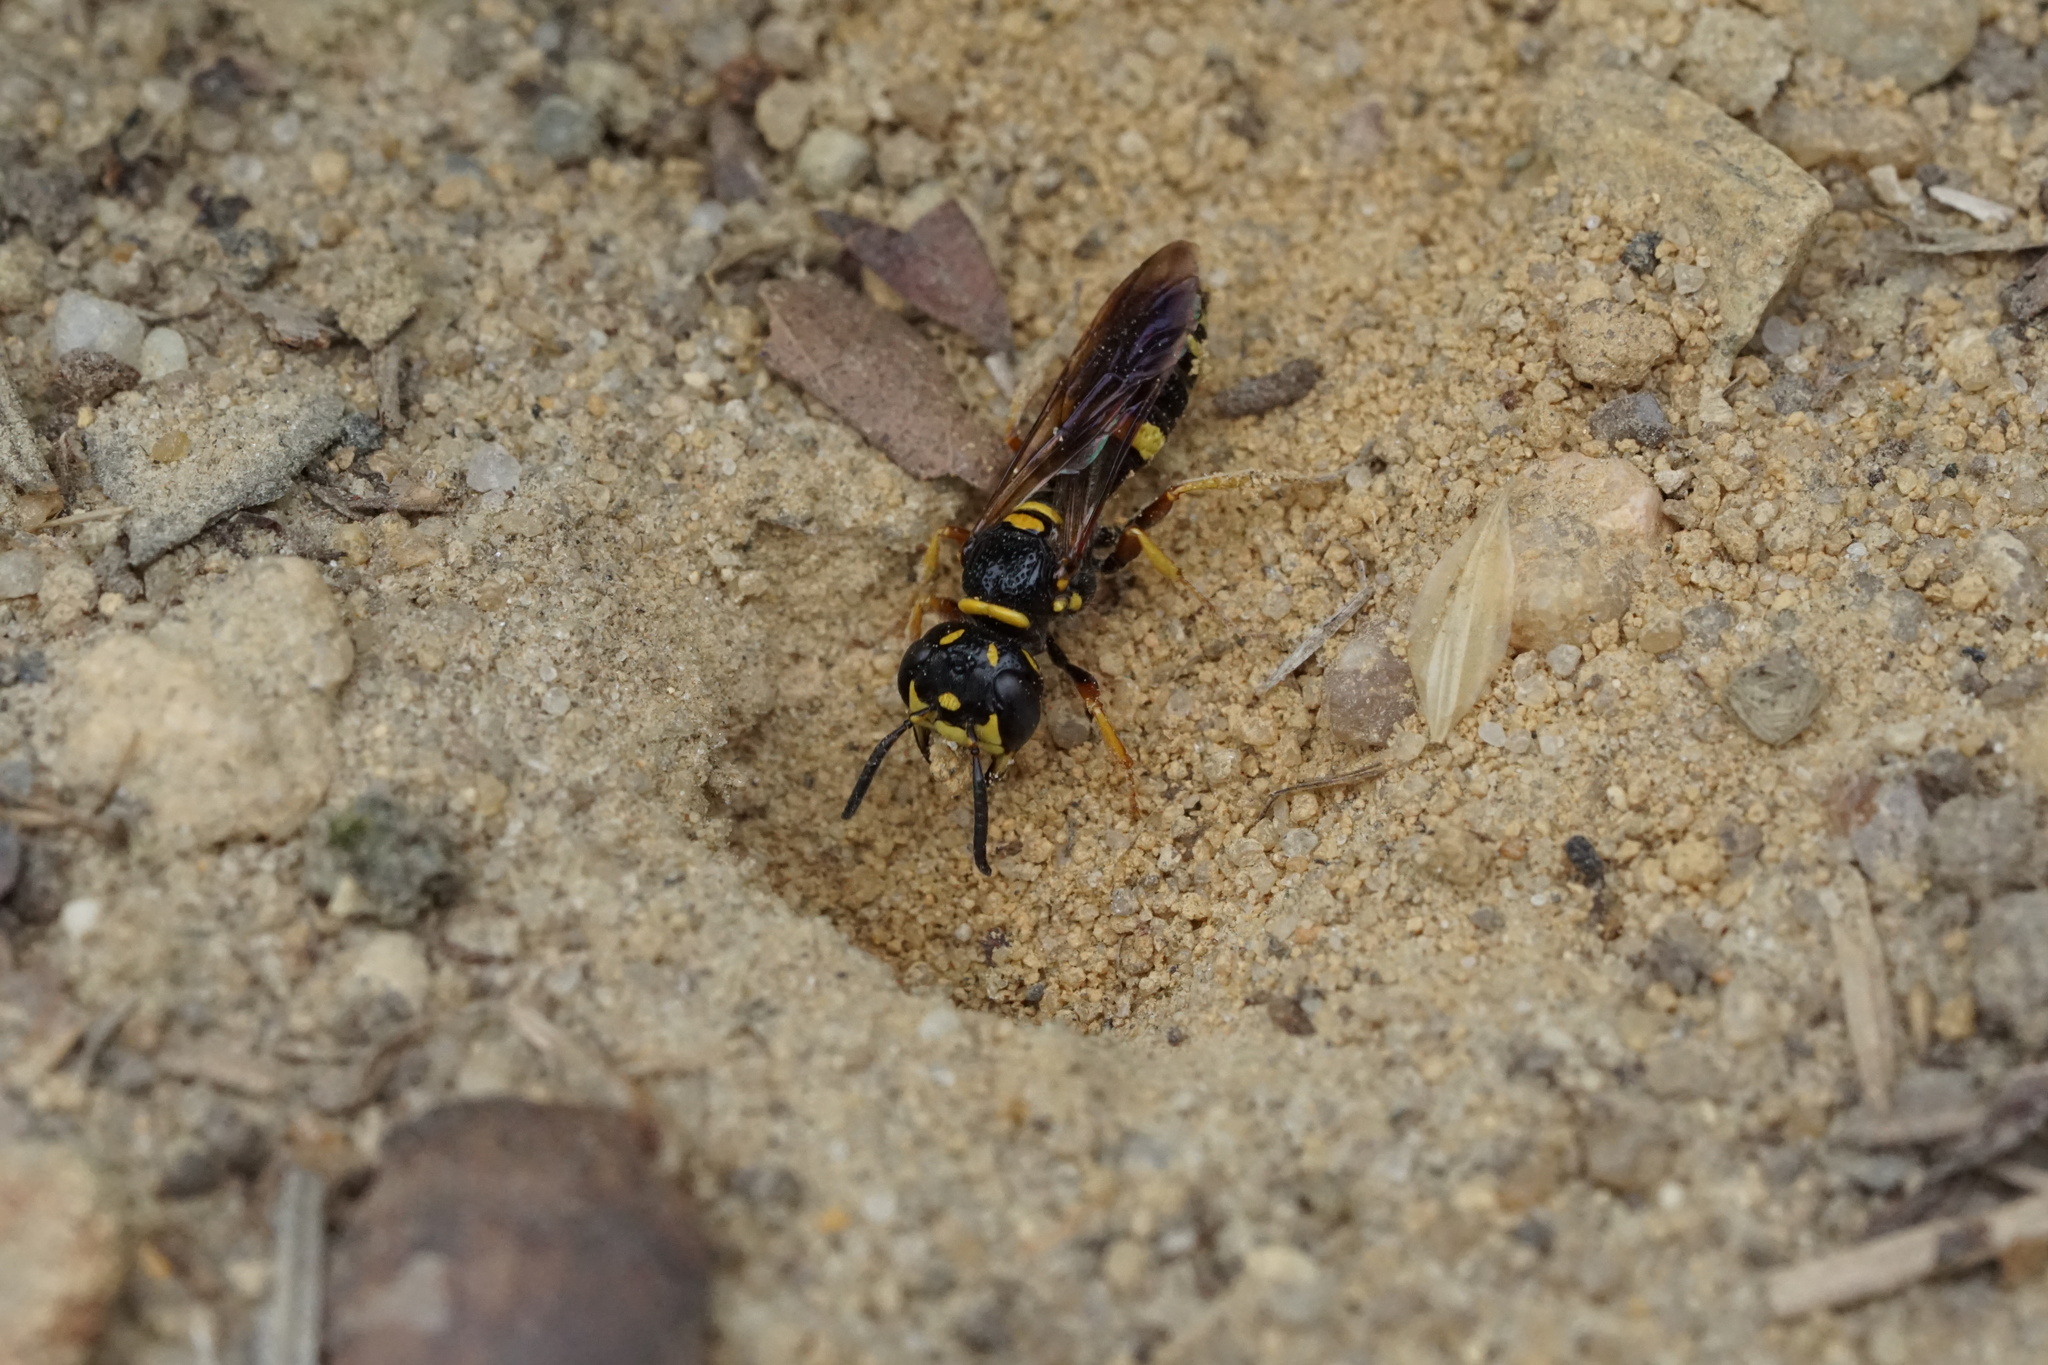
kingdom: Animalia
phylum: Arthropoda
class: Insecta
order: Hymenoptera
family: Crabronidae
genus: Philanthus
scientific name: Philanthus gibbosus
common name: Humped beewolf
